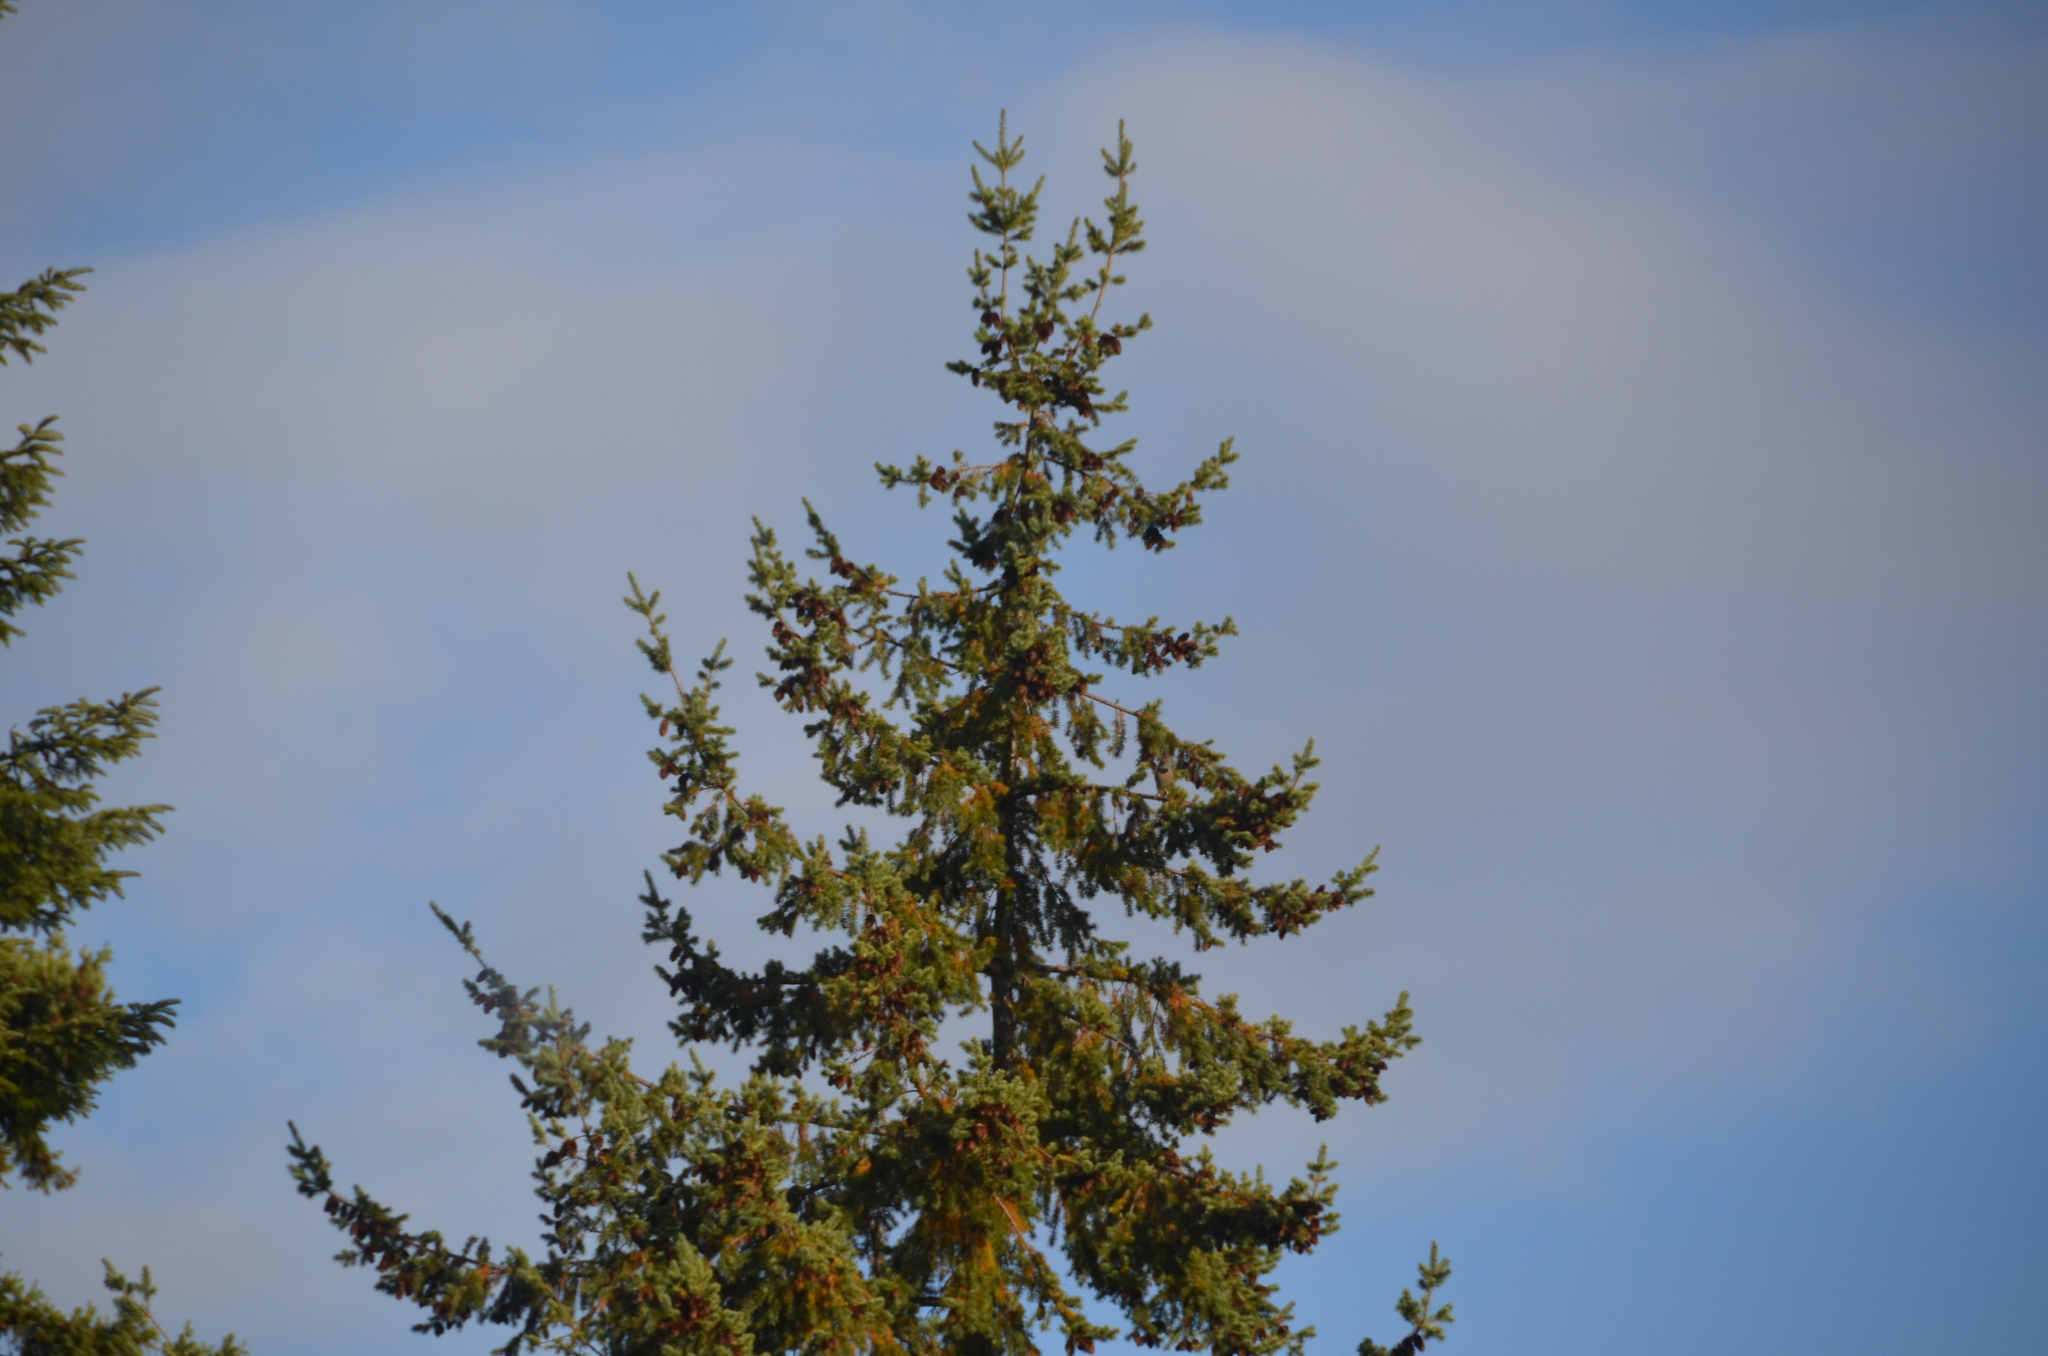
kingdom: Plantae
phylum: Tracheophyta
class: Pinopsida
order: Pinales
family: Pinaceae
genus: Pseudotsuga
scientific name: Pseudotsuga menziesii
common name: Douglas fir
